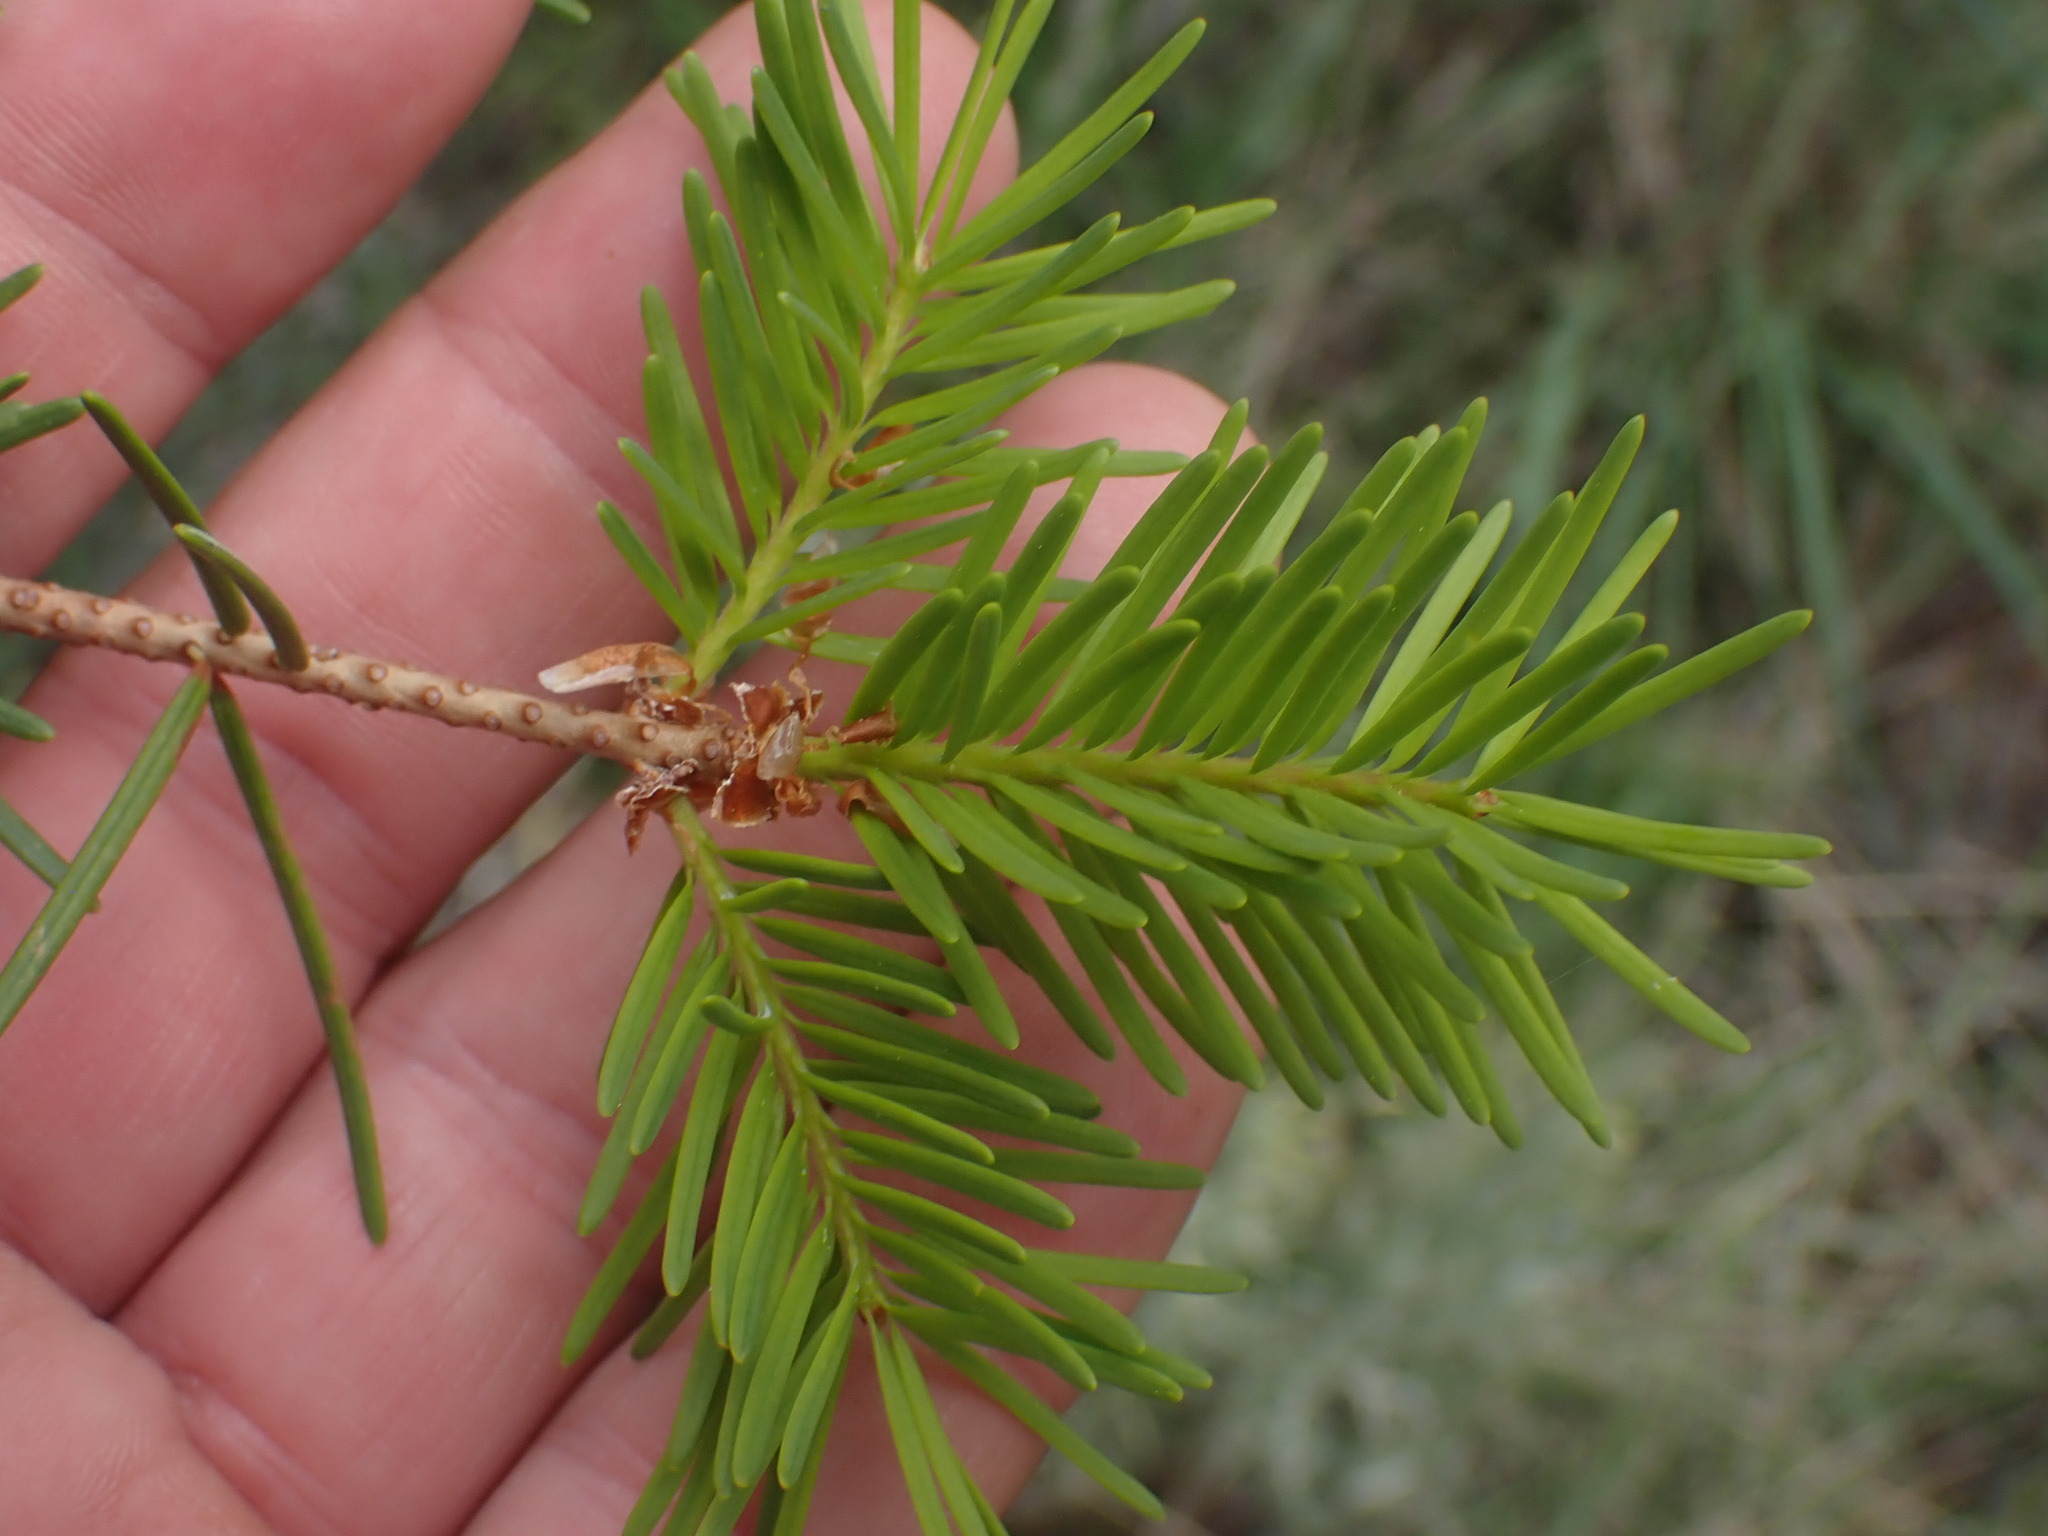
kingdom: Plantae
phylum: Tracheophyta
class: Pinopsida
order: Pinales
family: Pinaceae
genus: Pseudotsuga
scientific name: Pseudotsuga menziesii
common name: Douglas fir
